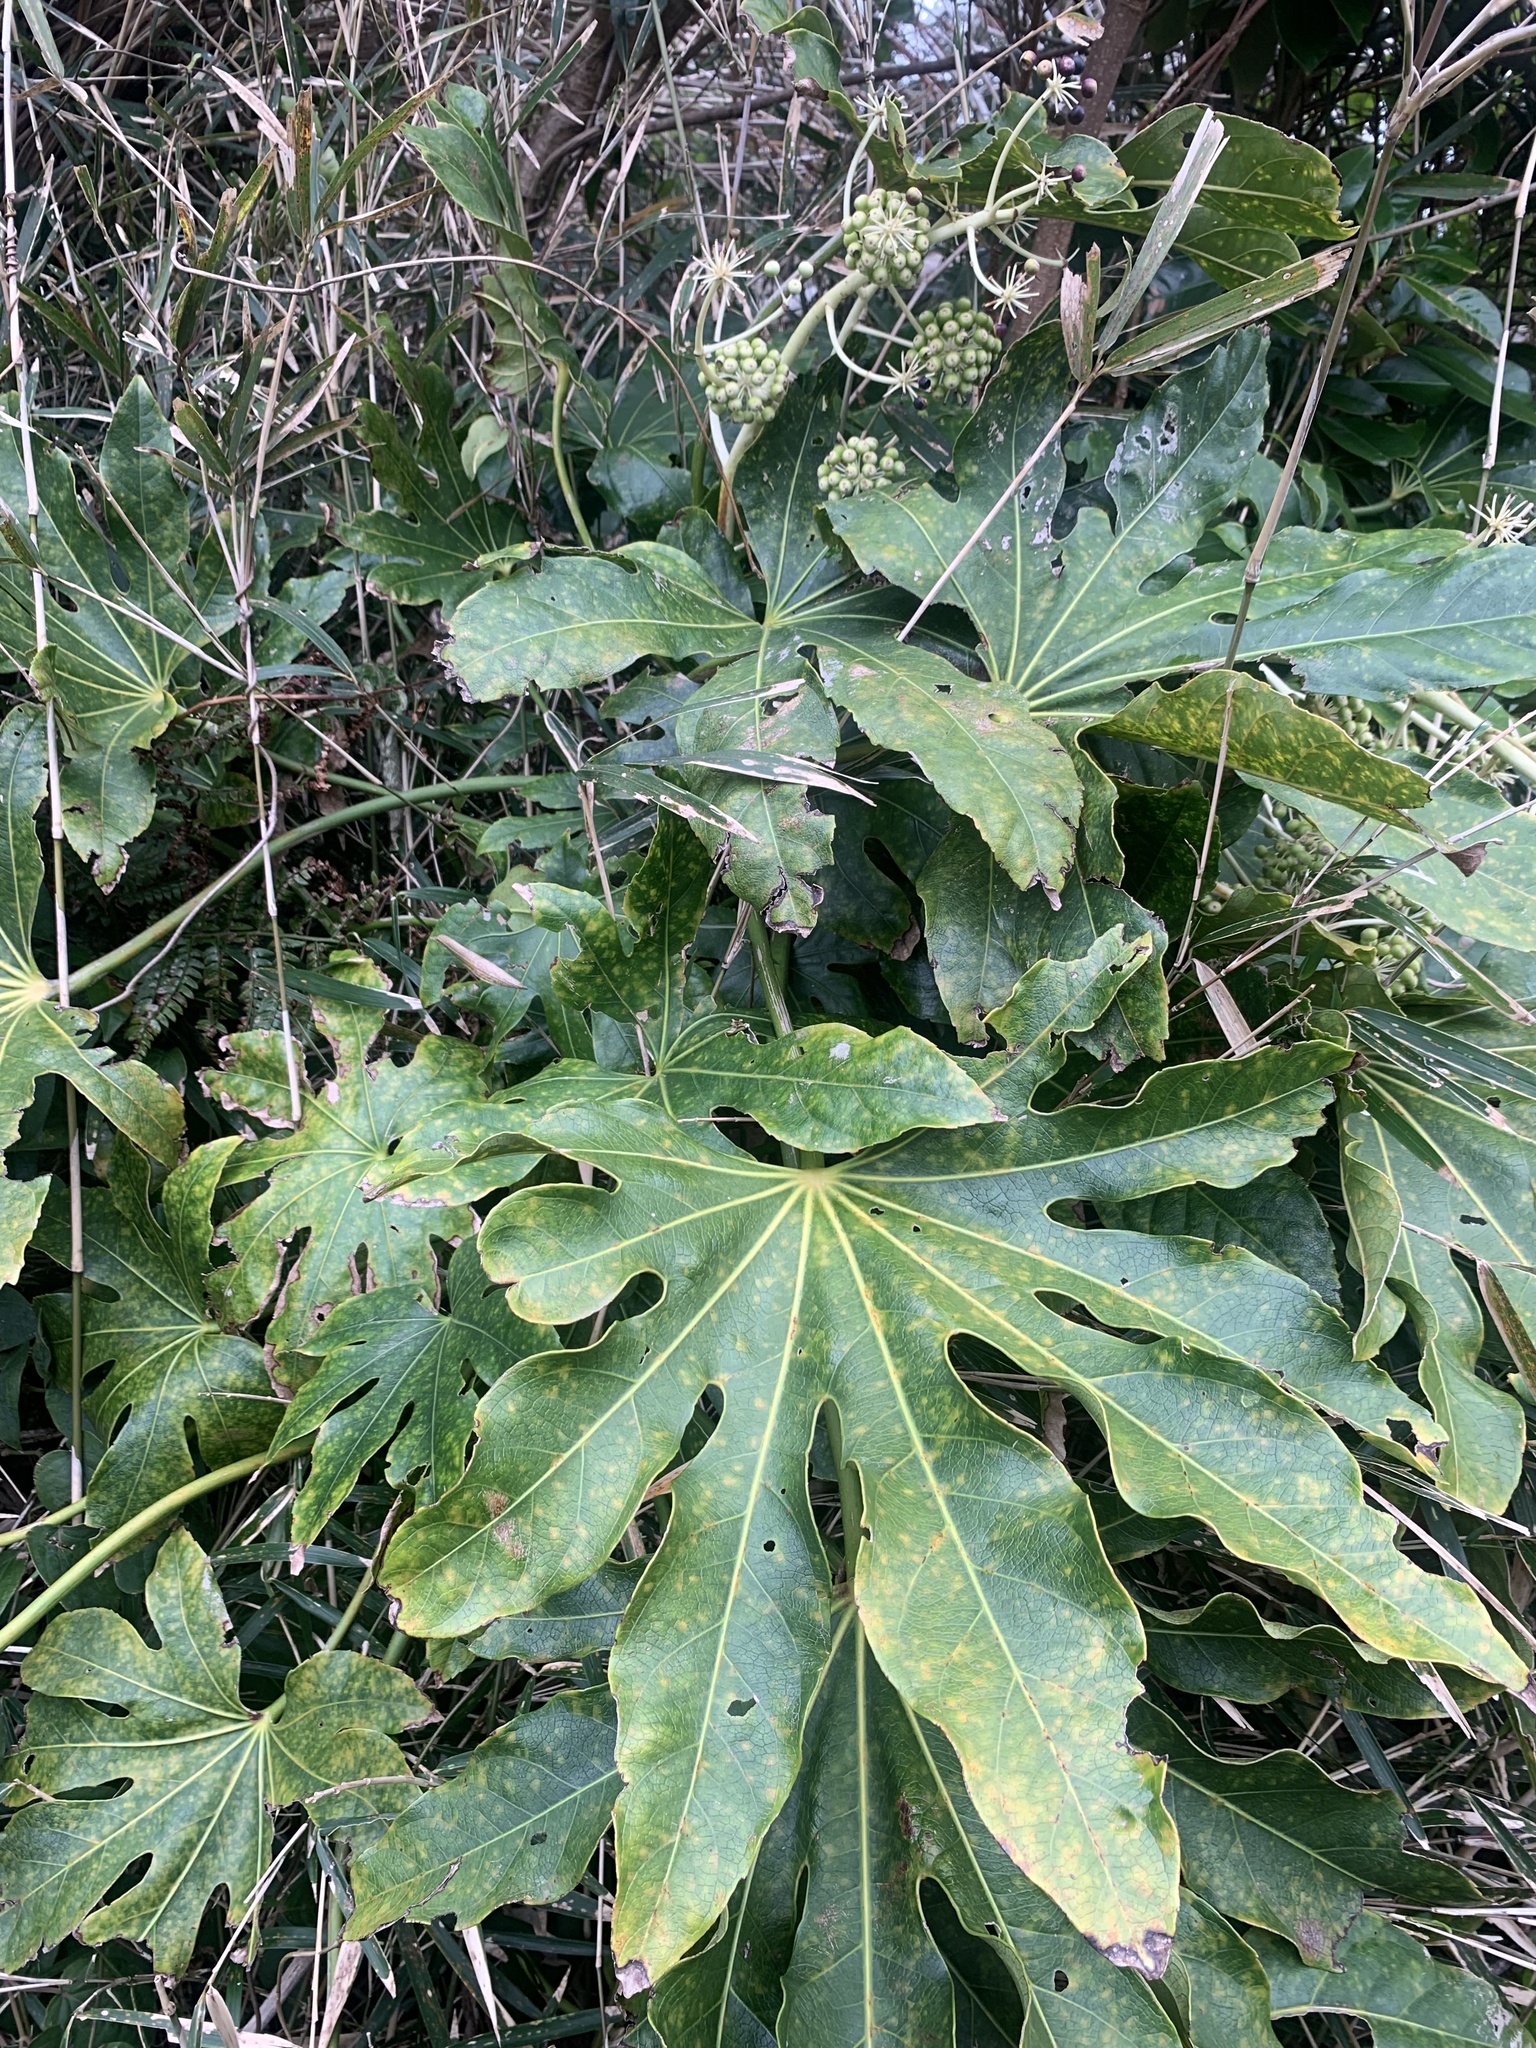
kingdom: Plantae
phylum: Tracheophyta
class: Magnoliopsida
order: Apiales
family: Araliaceae
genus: Fatsia
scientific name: Fatsia japonica
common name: Fatsia
